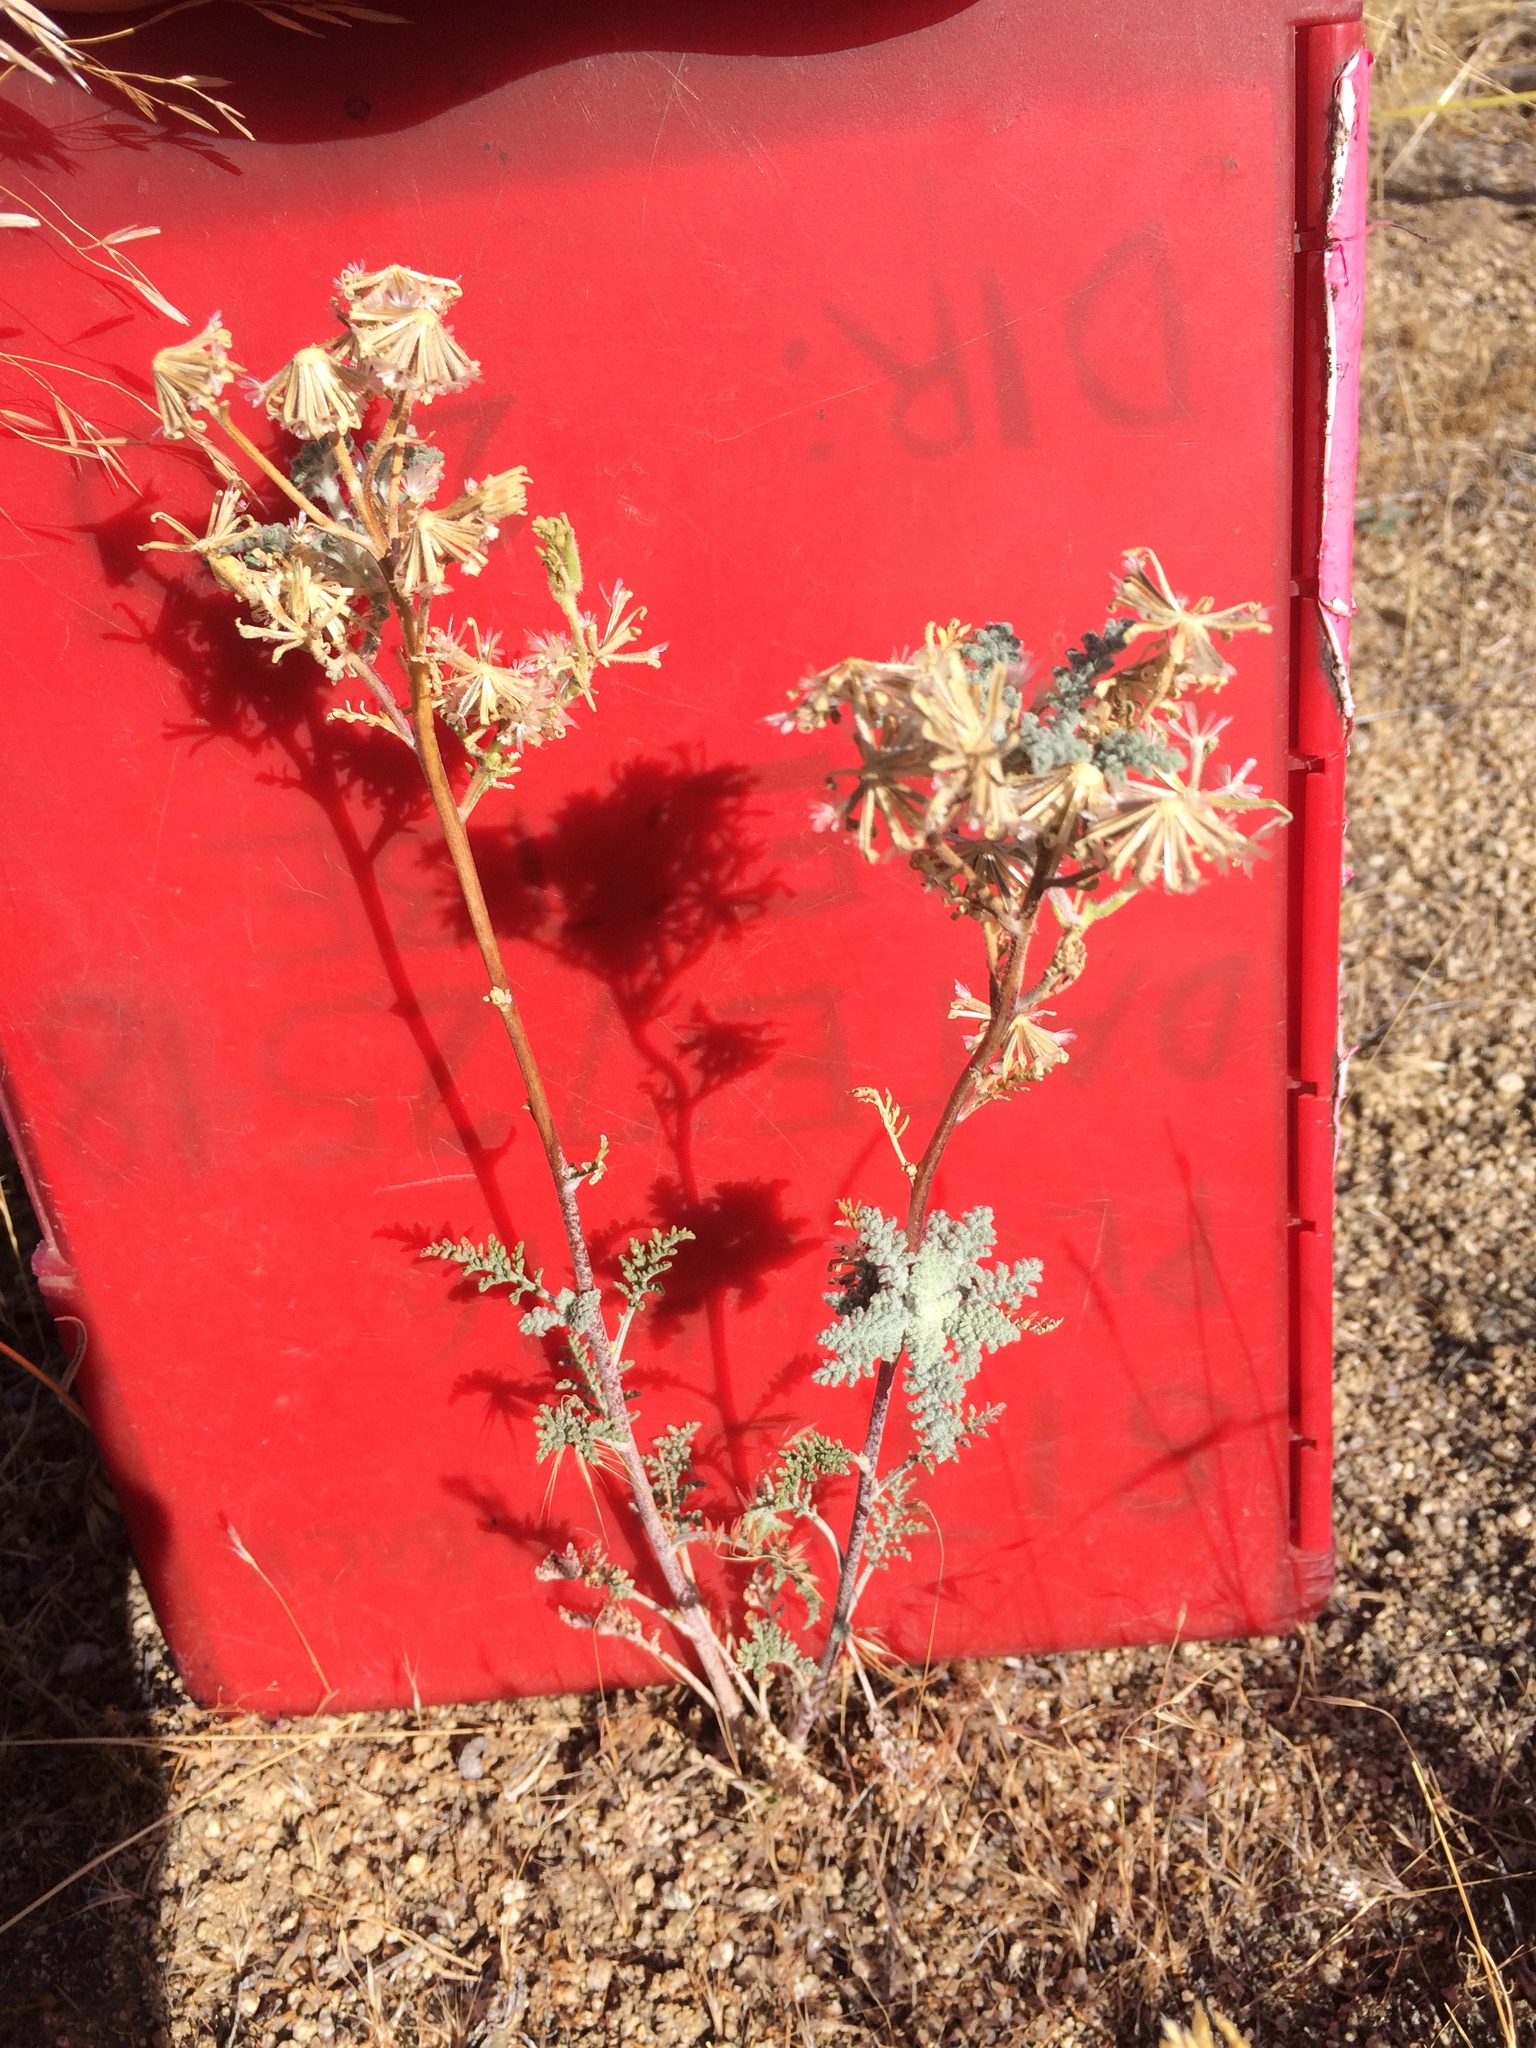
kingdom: Plantae
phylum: Tracheophyta
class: Magnoliopsida
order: Asterales
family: Asteraceae
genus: Chaenactis
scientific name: Chaenactis douglasii
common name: Hoary pincushion
